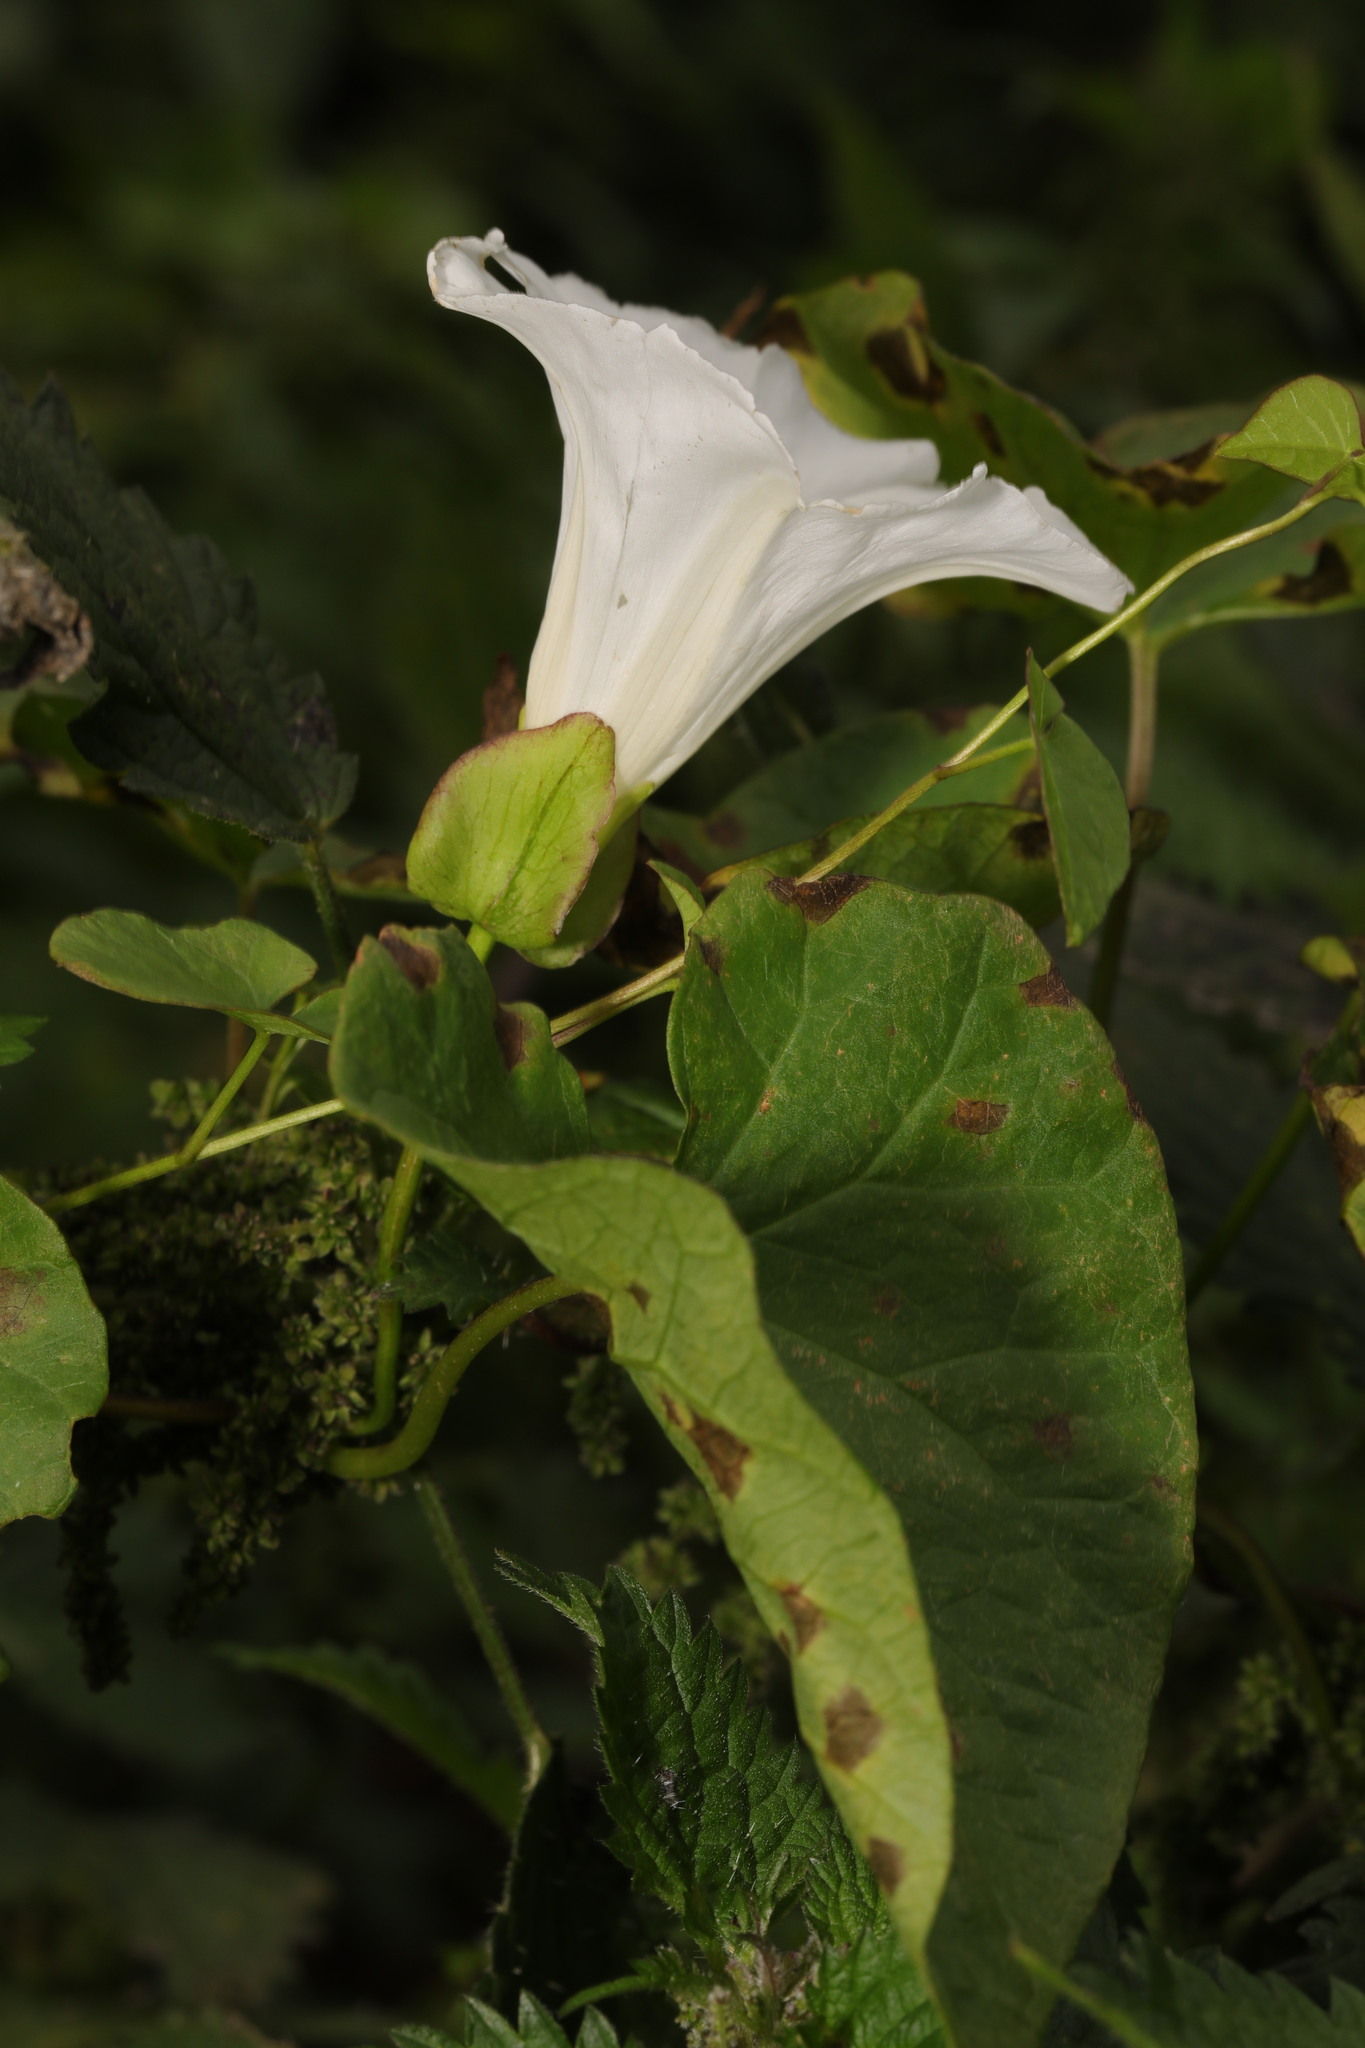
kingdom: Plantae
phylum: Tracheophyta
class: Magnoliopsida
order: Solanales
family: Convolvulaceae
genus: Calystegia
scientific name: Calystegia silvatica
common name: Large bindweed
